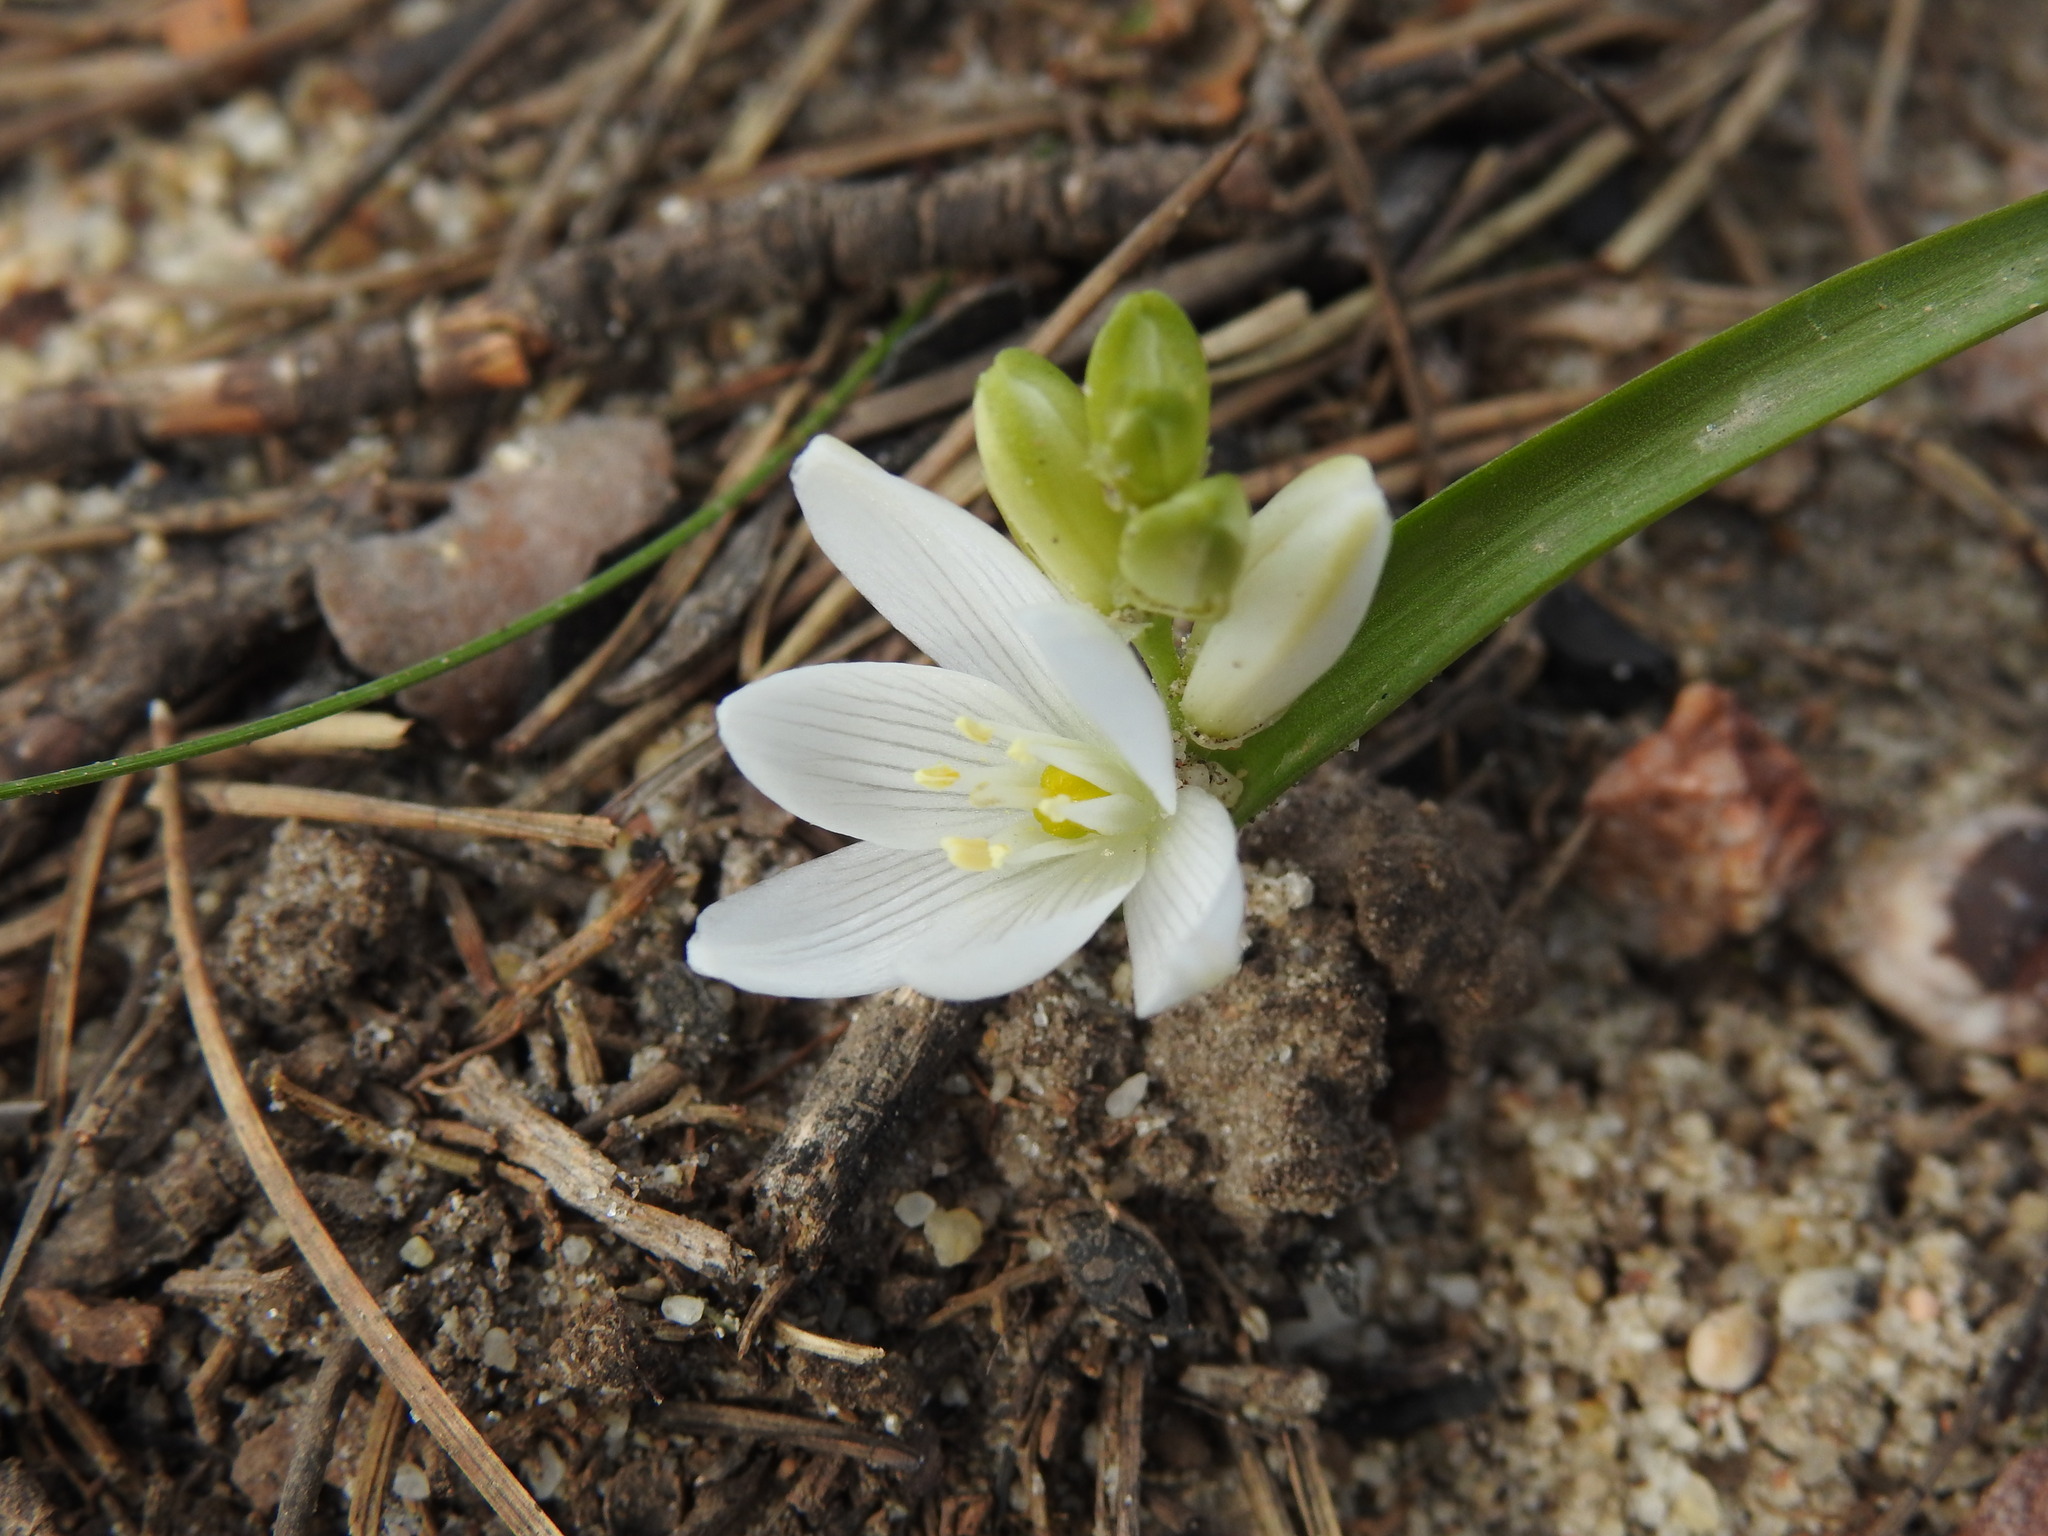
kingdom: Plantae
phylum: Tracheophyta
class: Liliopsida
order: Asparagales
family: Asparagaceae
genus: Ornithogalum
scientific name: Ornithogalum broteroi
